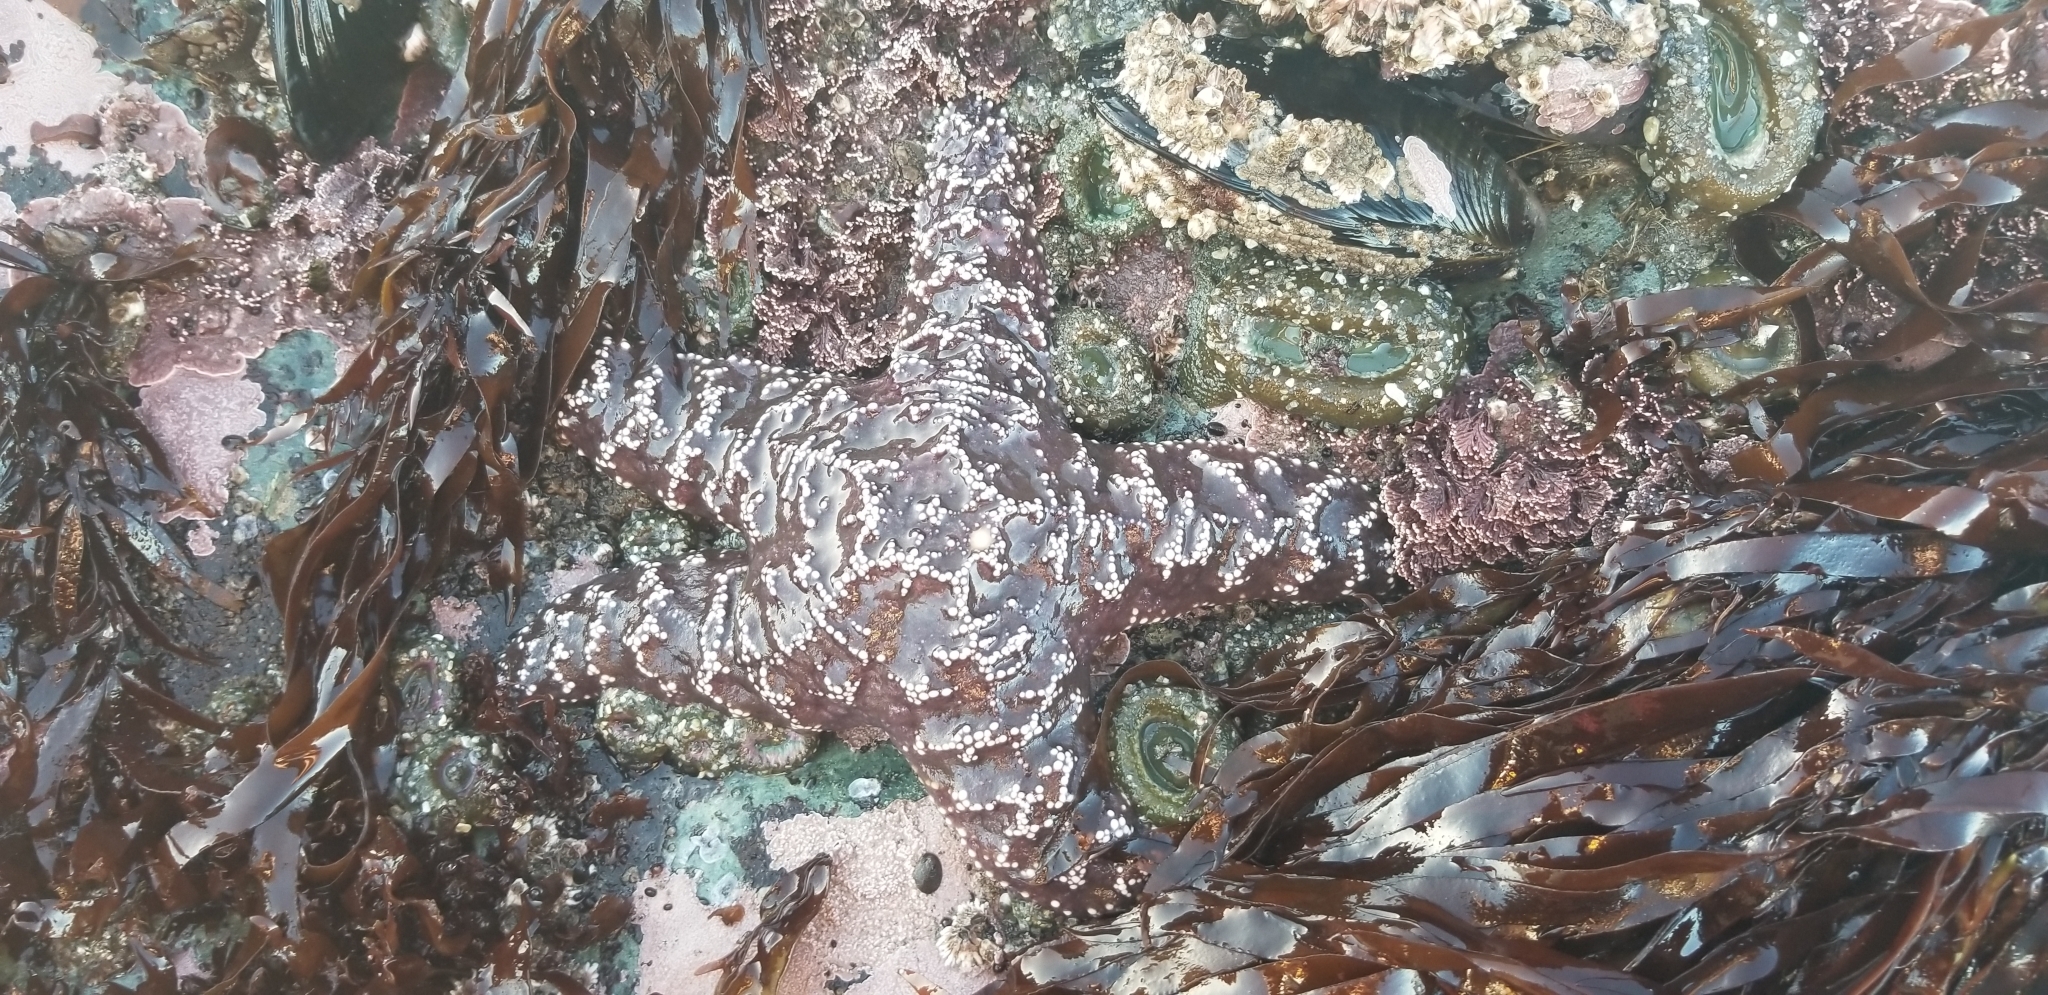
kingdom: Animalia
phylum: Echinodermata
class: Asteroidea
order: Forcipulatida
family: Asteriidae
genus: Pisaster
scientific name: Pisaster ochraceus
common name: Ochre stars
